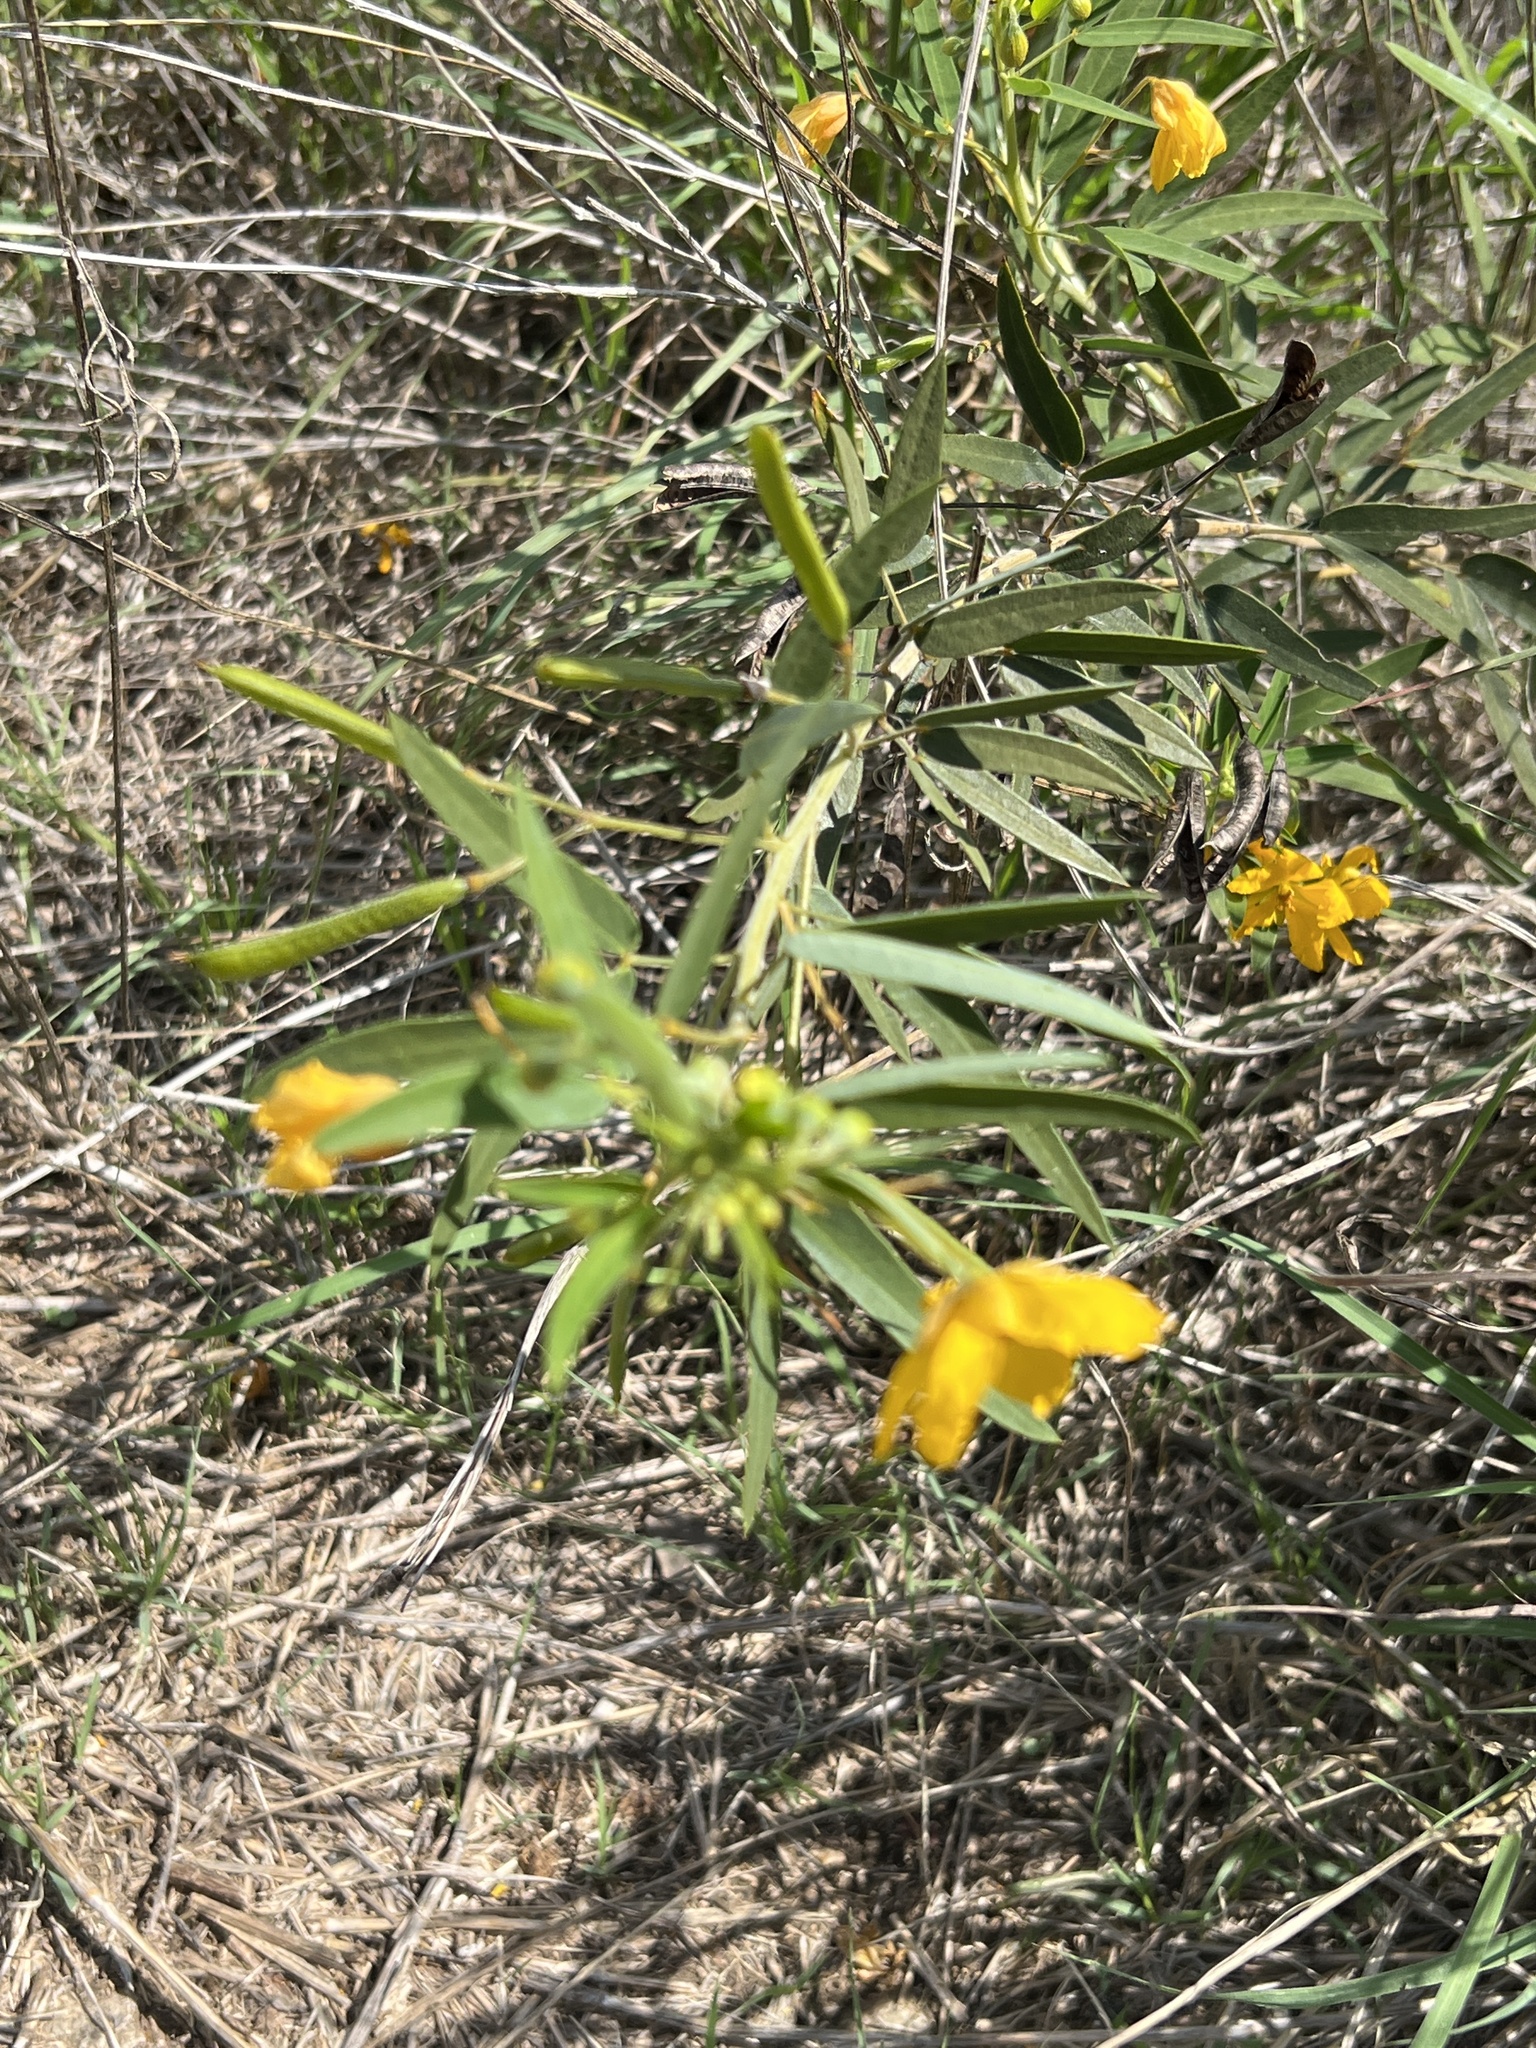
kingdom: Plantae
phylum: Tracheophyta
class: Magnoliopsida
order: Fabales
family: Fabaceae
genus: Senna
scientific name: Senna roemeriana
